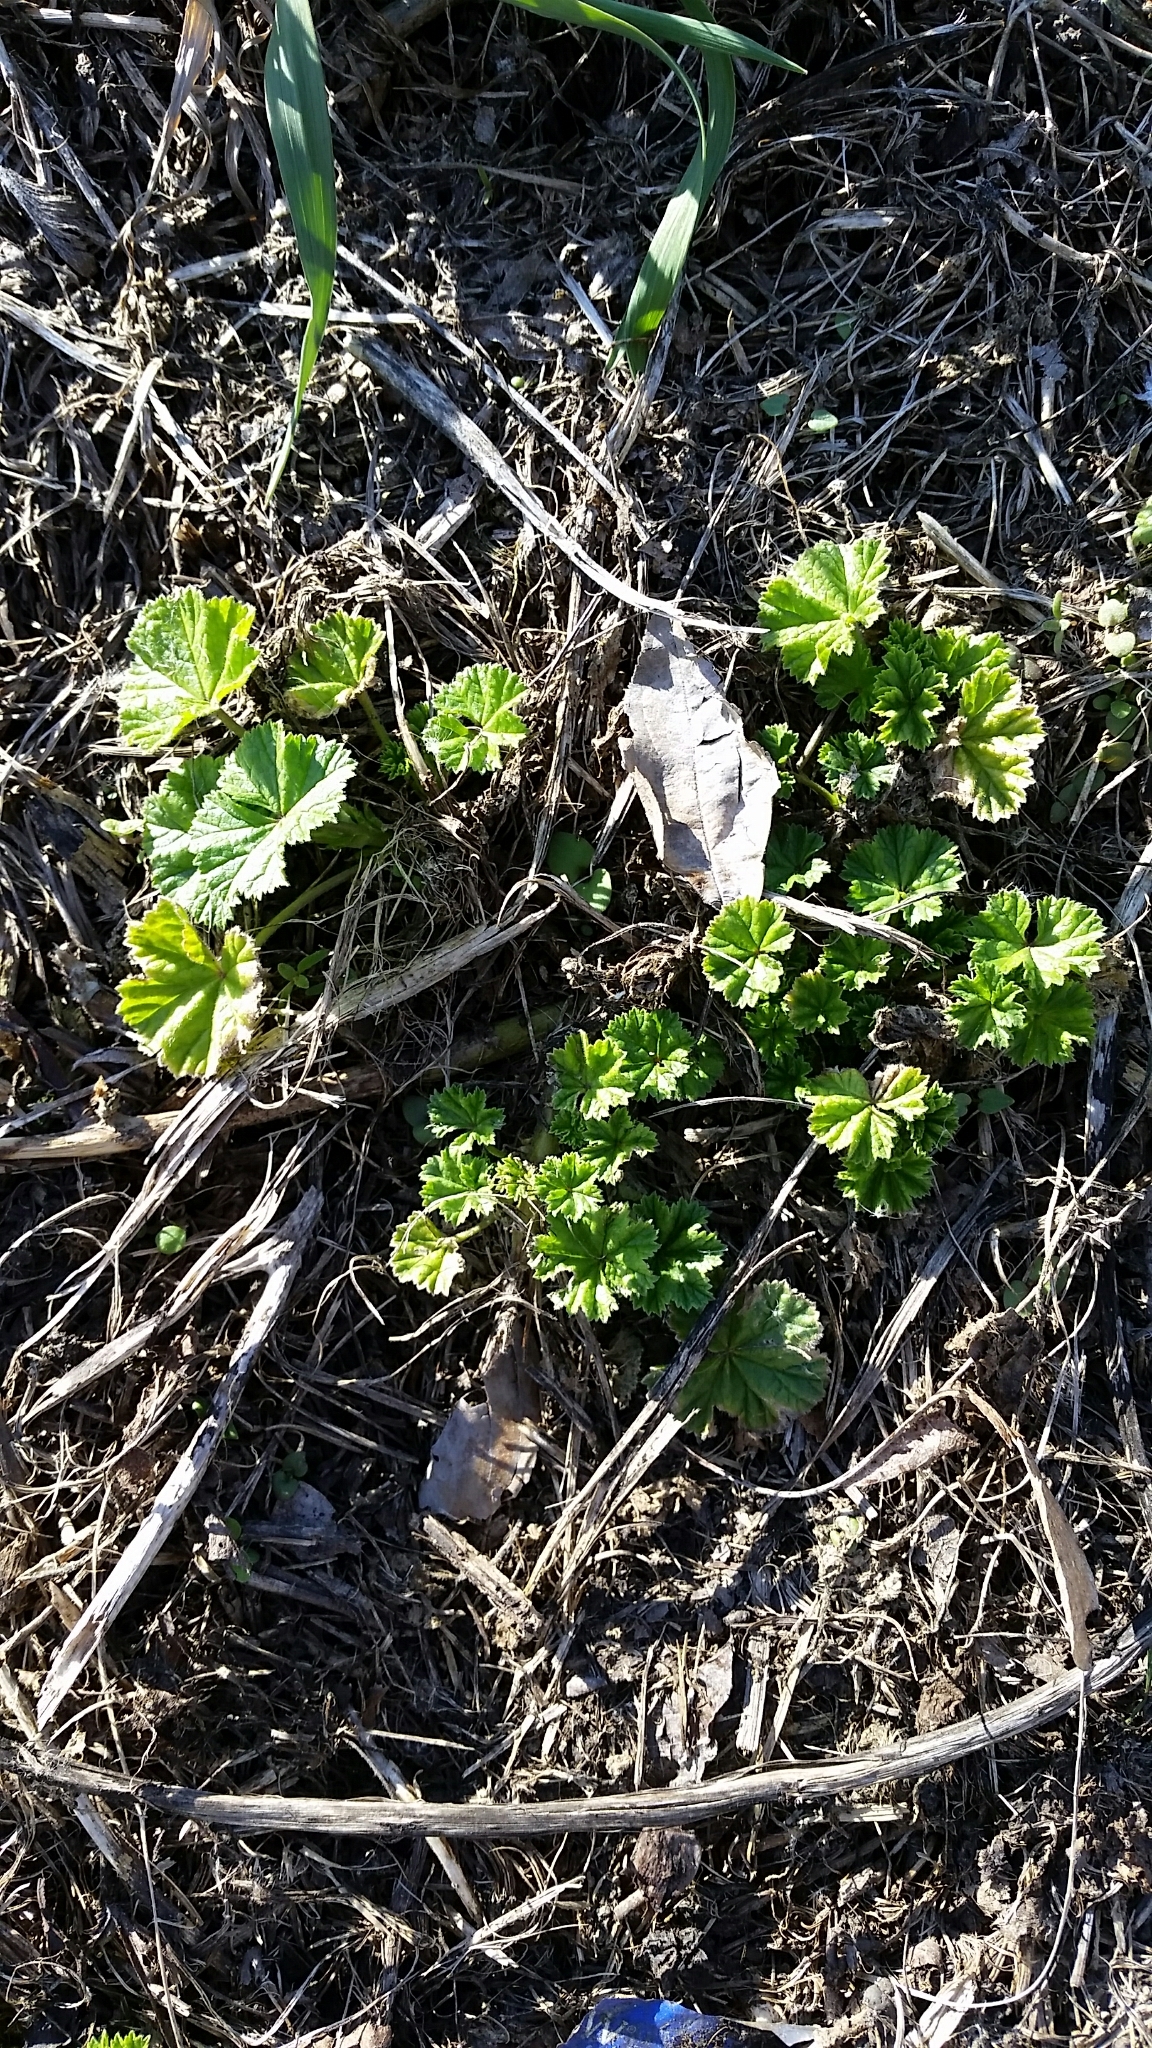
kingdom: Plantae
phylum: Tracheophyta
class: Magnoliopsida
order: Malvales
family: Malvaceae
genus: Malva
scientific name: Malva neglecta
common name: Common mallow
